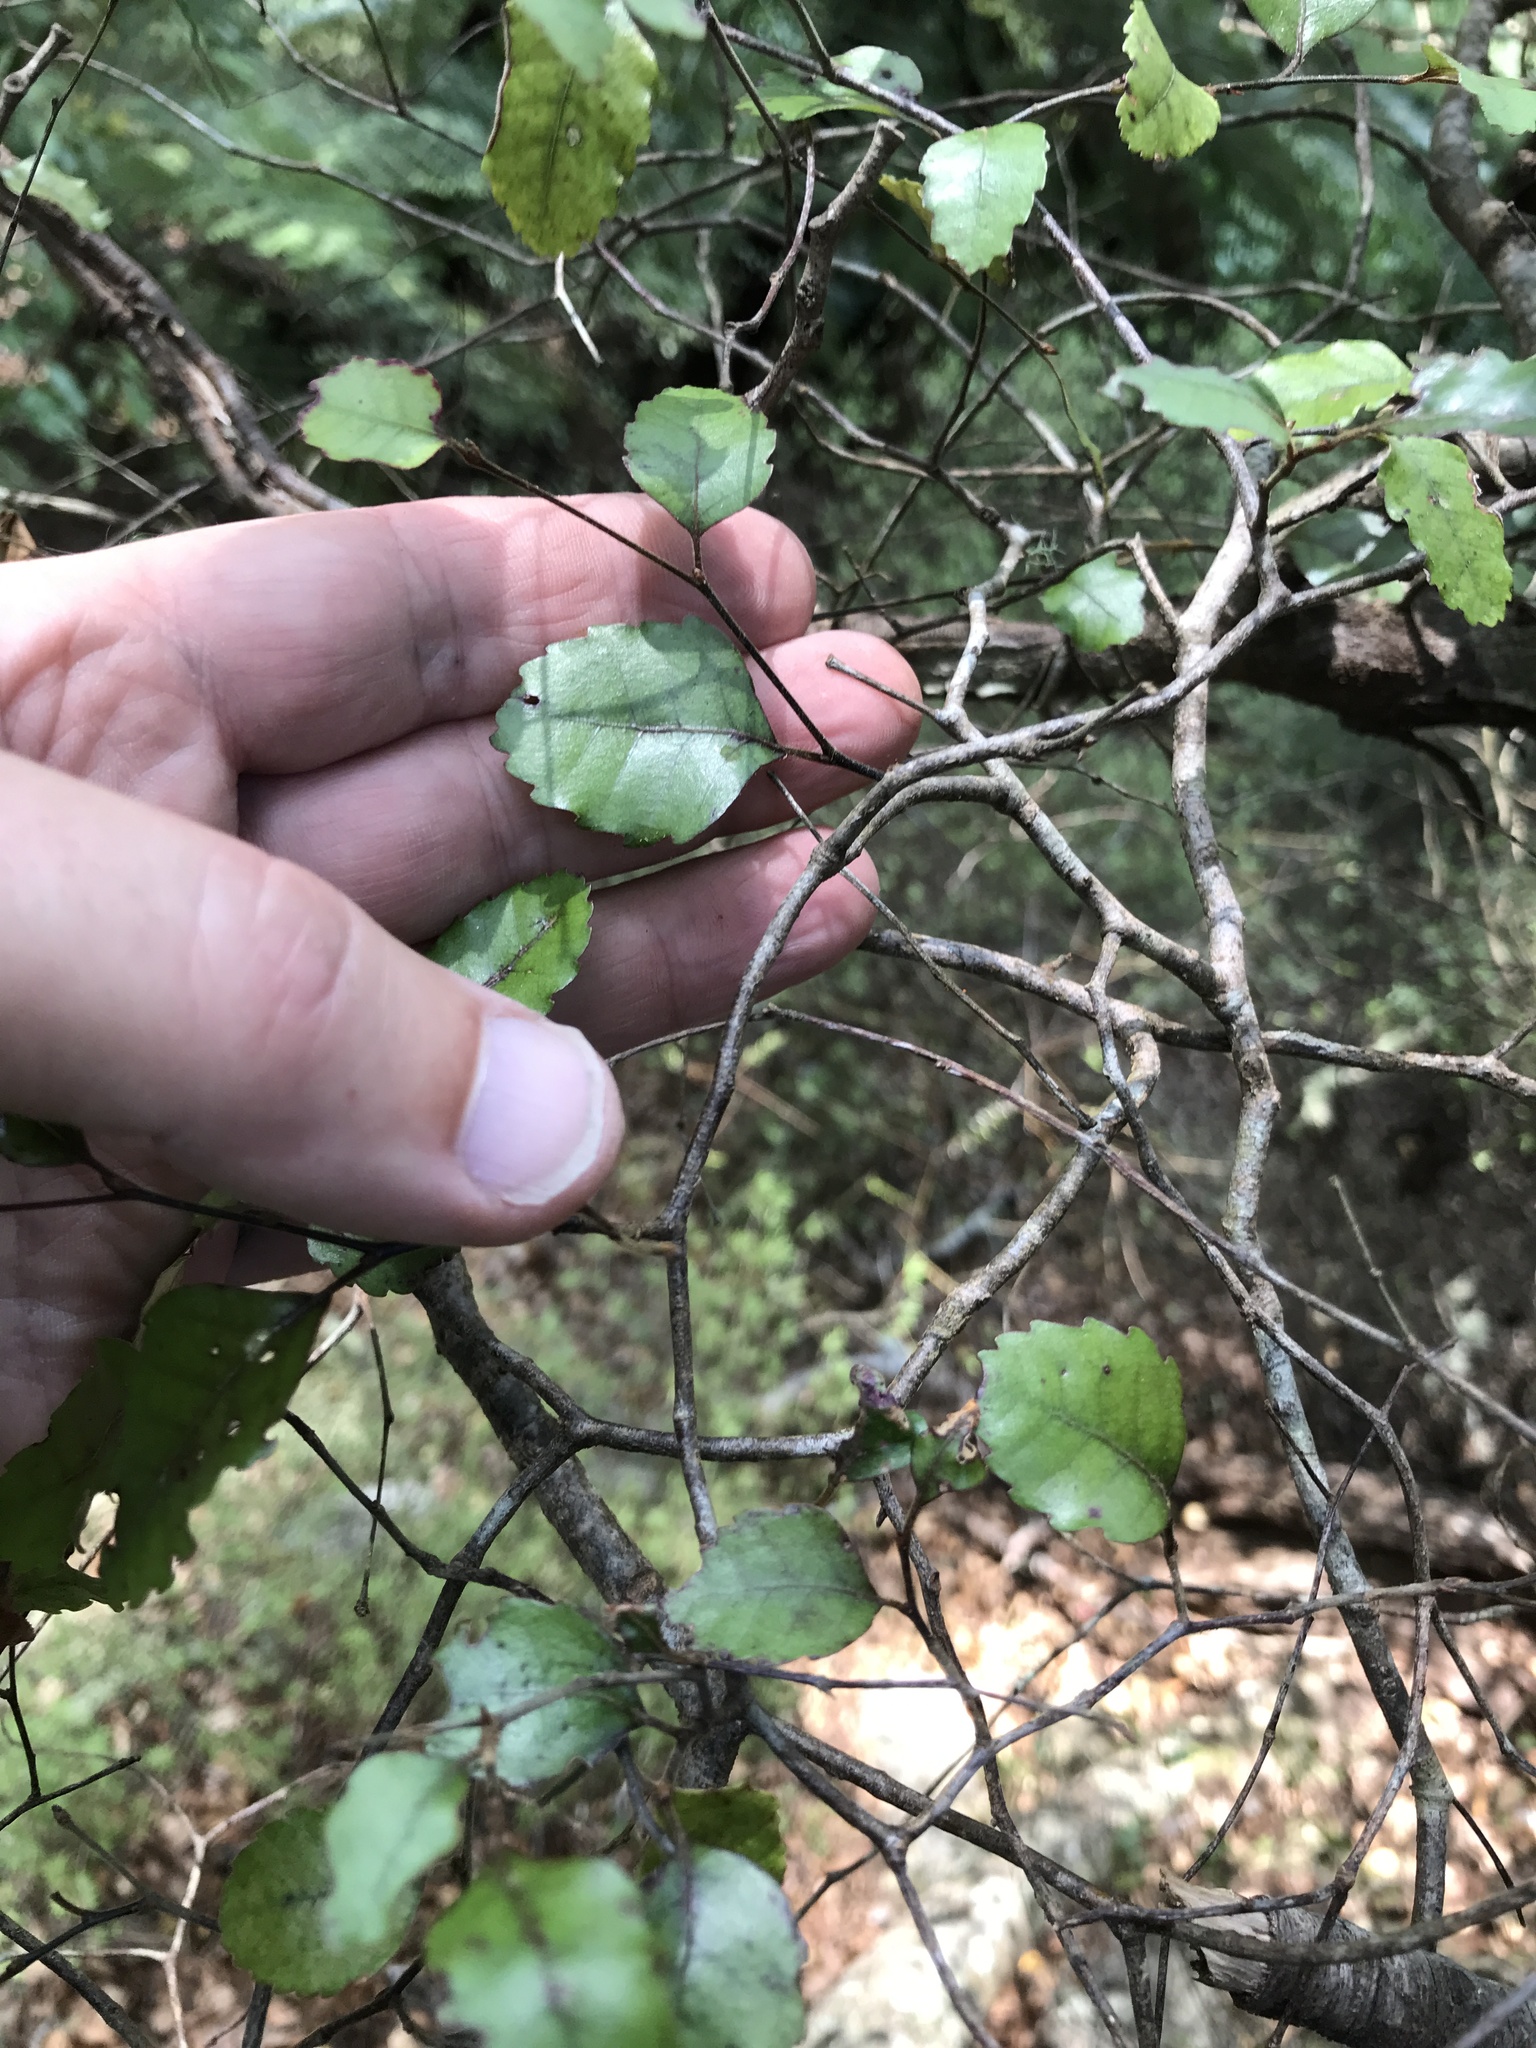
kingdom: Fungi
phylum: Basidiomycota
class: Agaricomycetes
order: Polyporales
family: Laetiporaceae
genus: Laetiporus
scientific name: Laetiporus portentosus
